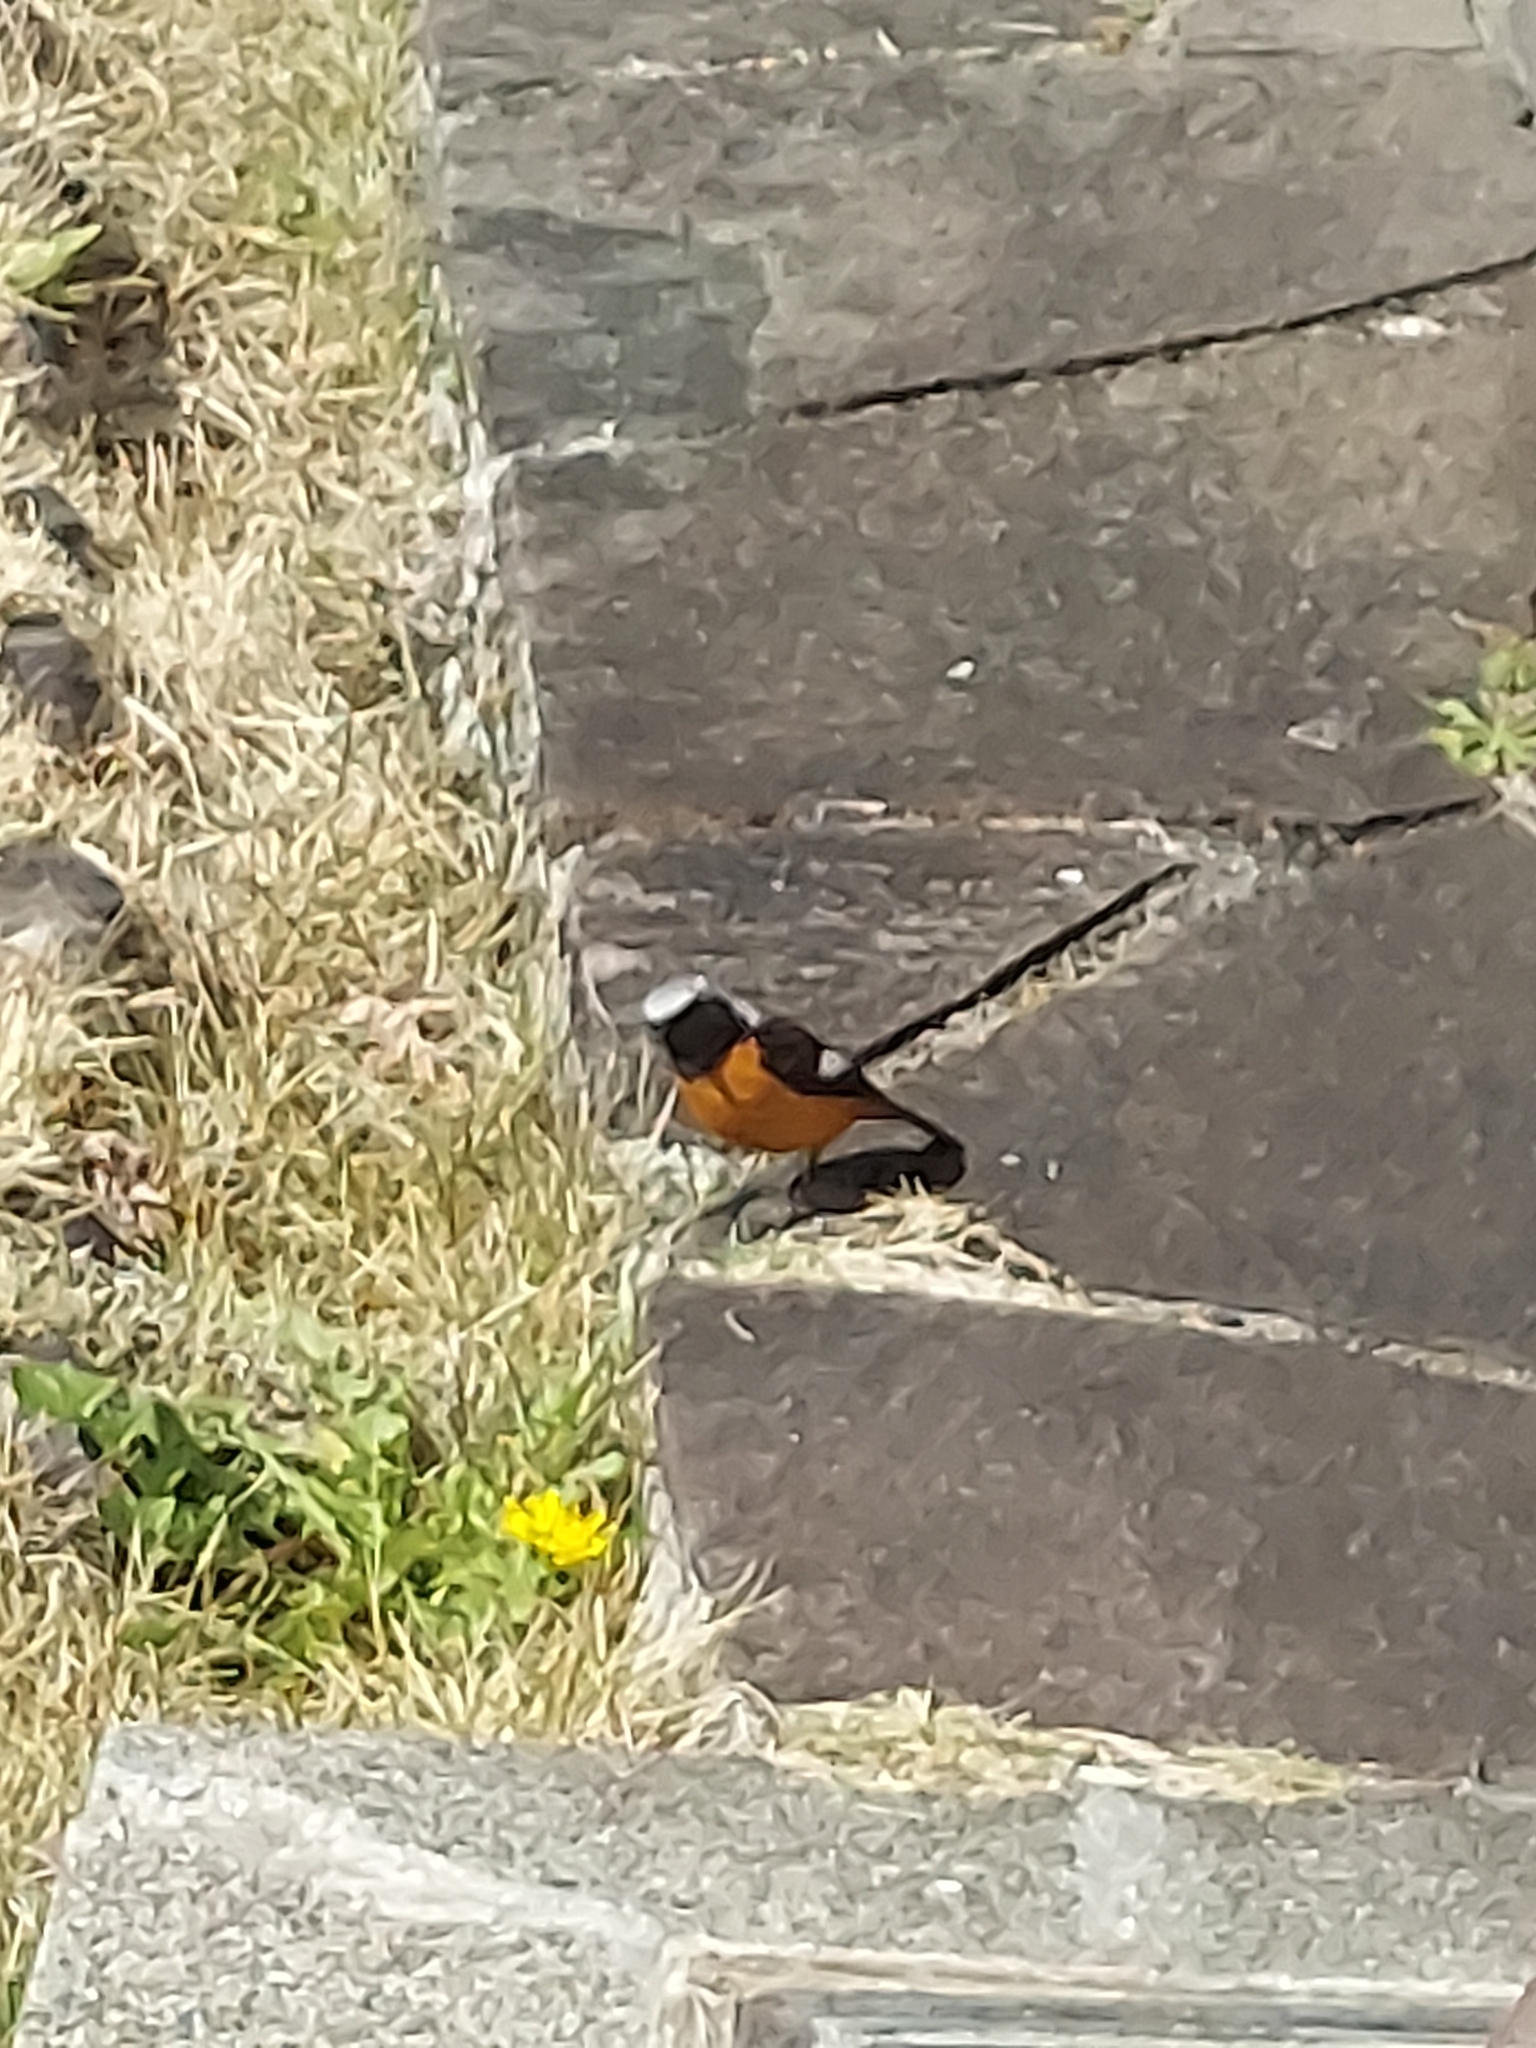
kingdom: Animalia
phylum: Chordata
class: Aves
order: Passeriformes
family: Muscicapidae
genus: Phoenicurus
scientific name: Phoenicurus auroreus
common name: Daurian redstart
